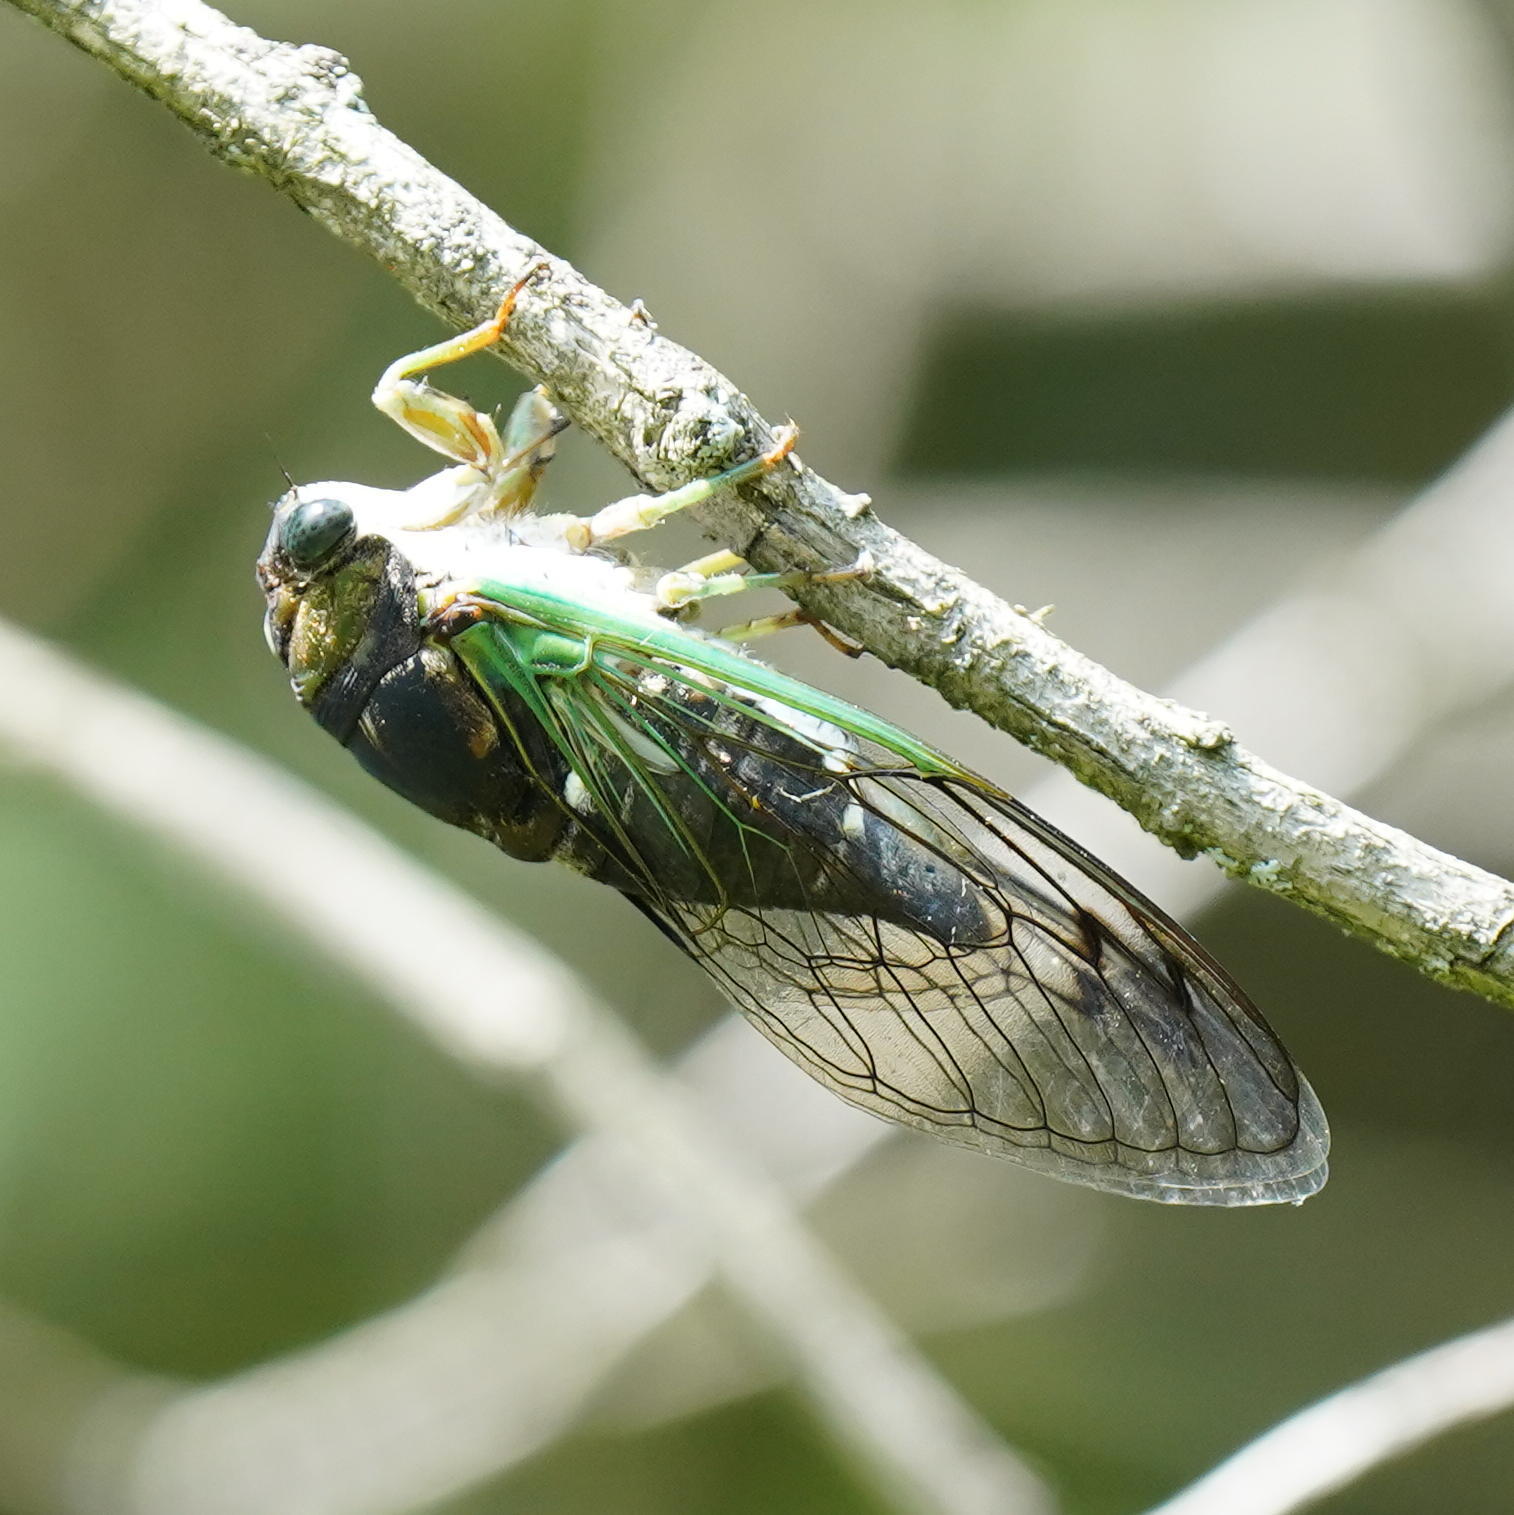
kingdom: Animalia
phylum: Arthropoda
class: Insecta
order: Hemiptera
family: Cicadidae
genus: Neotibicen
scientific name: Neotibicen tibicen
